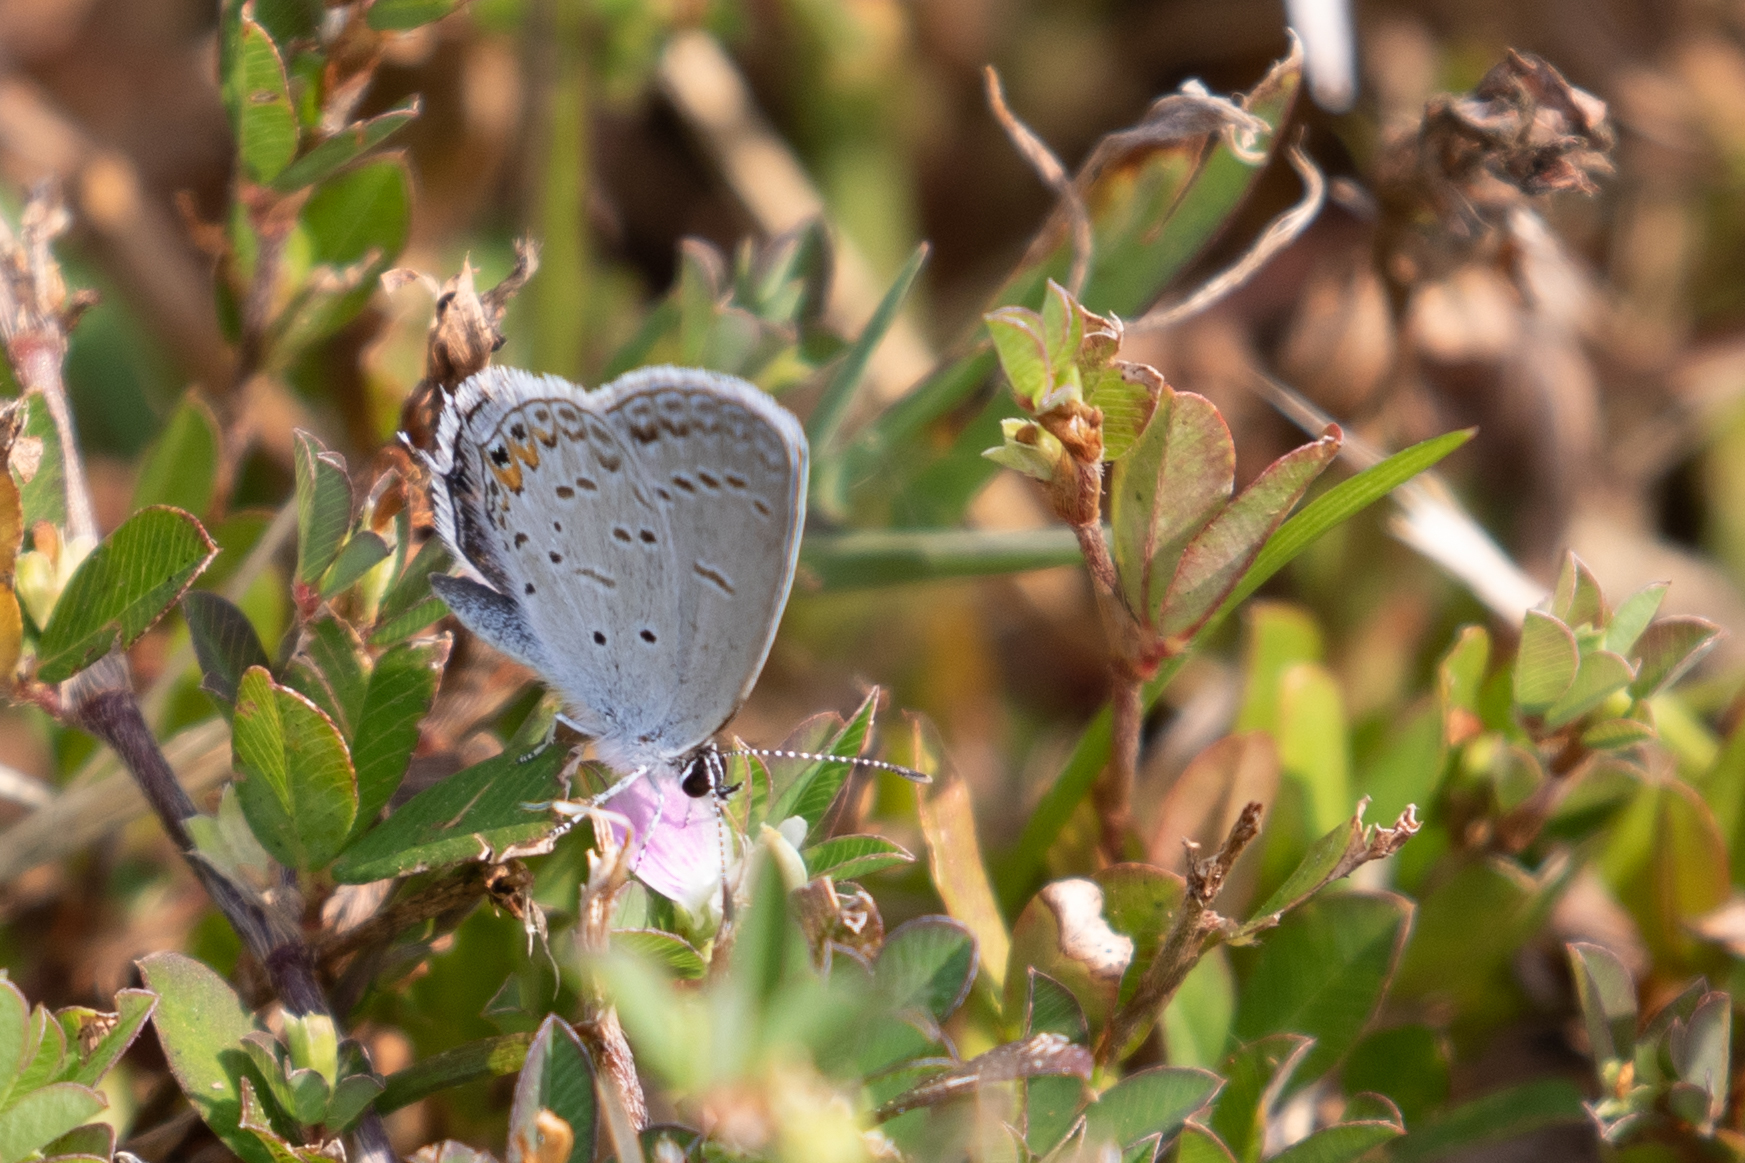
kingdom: Animalia
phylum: Arthropoda
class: Insecta
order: Lepidoptera
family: Lycaenidae
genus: Elkalyce
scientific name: Elkalyce comyntas
